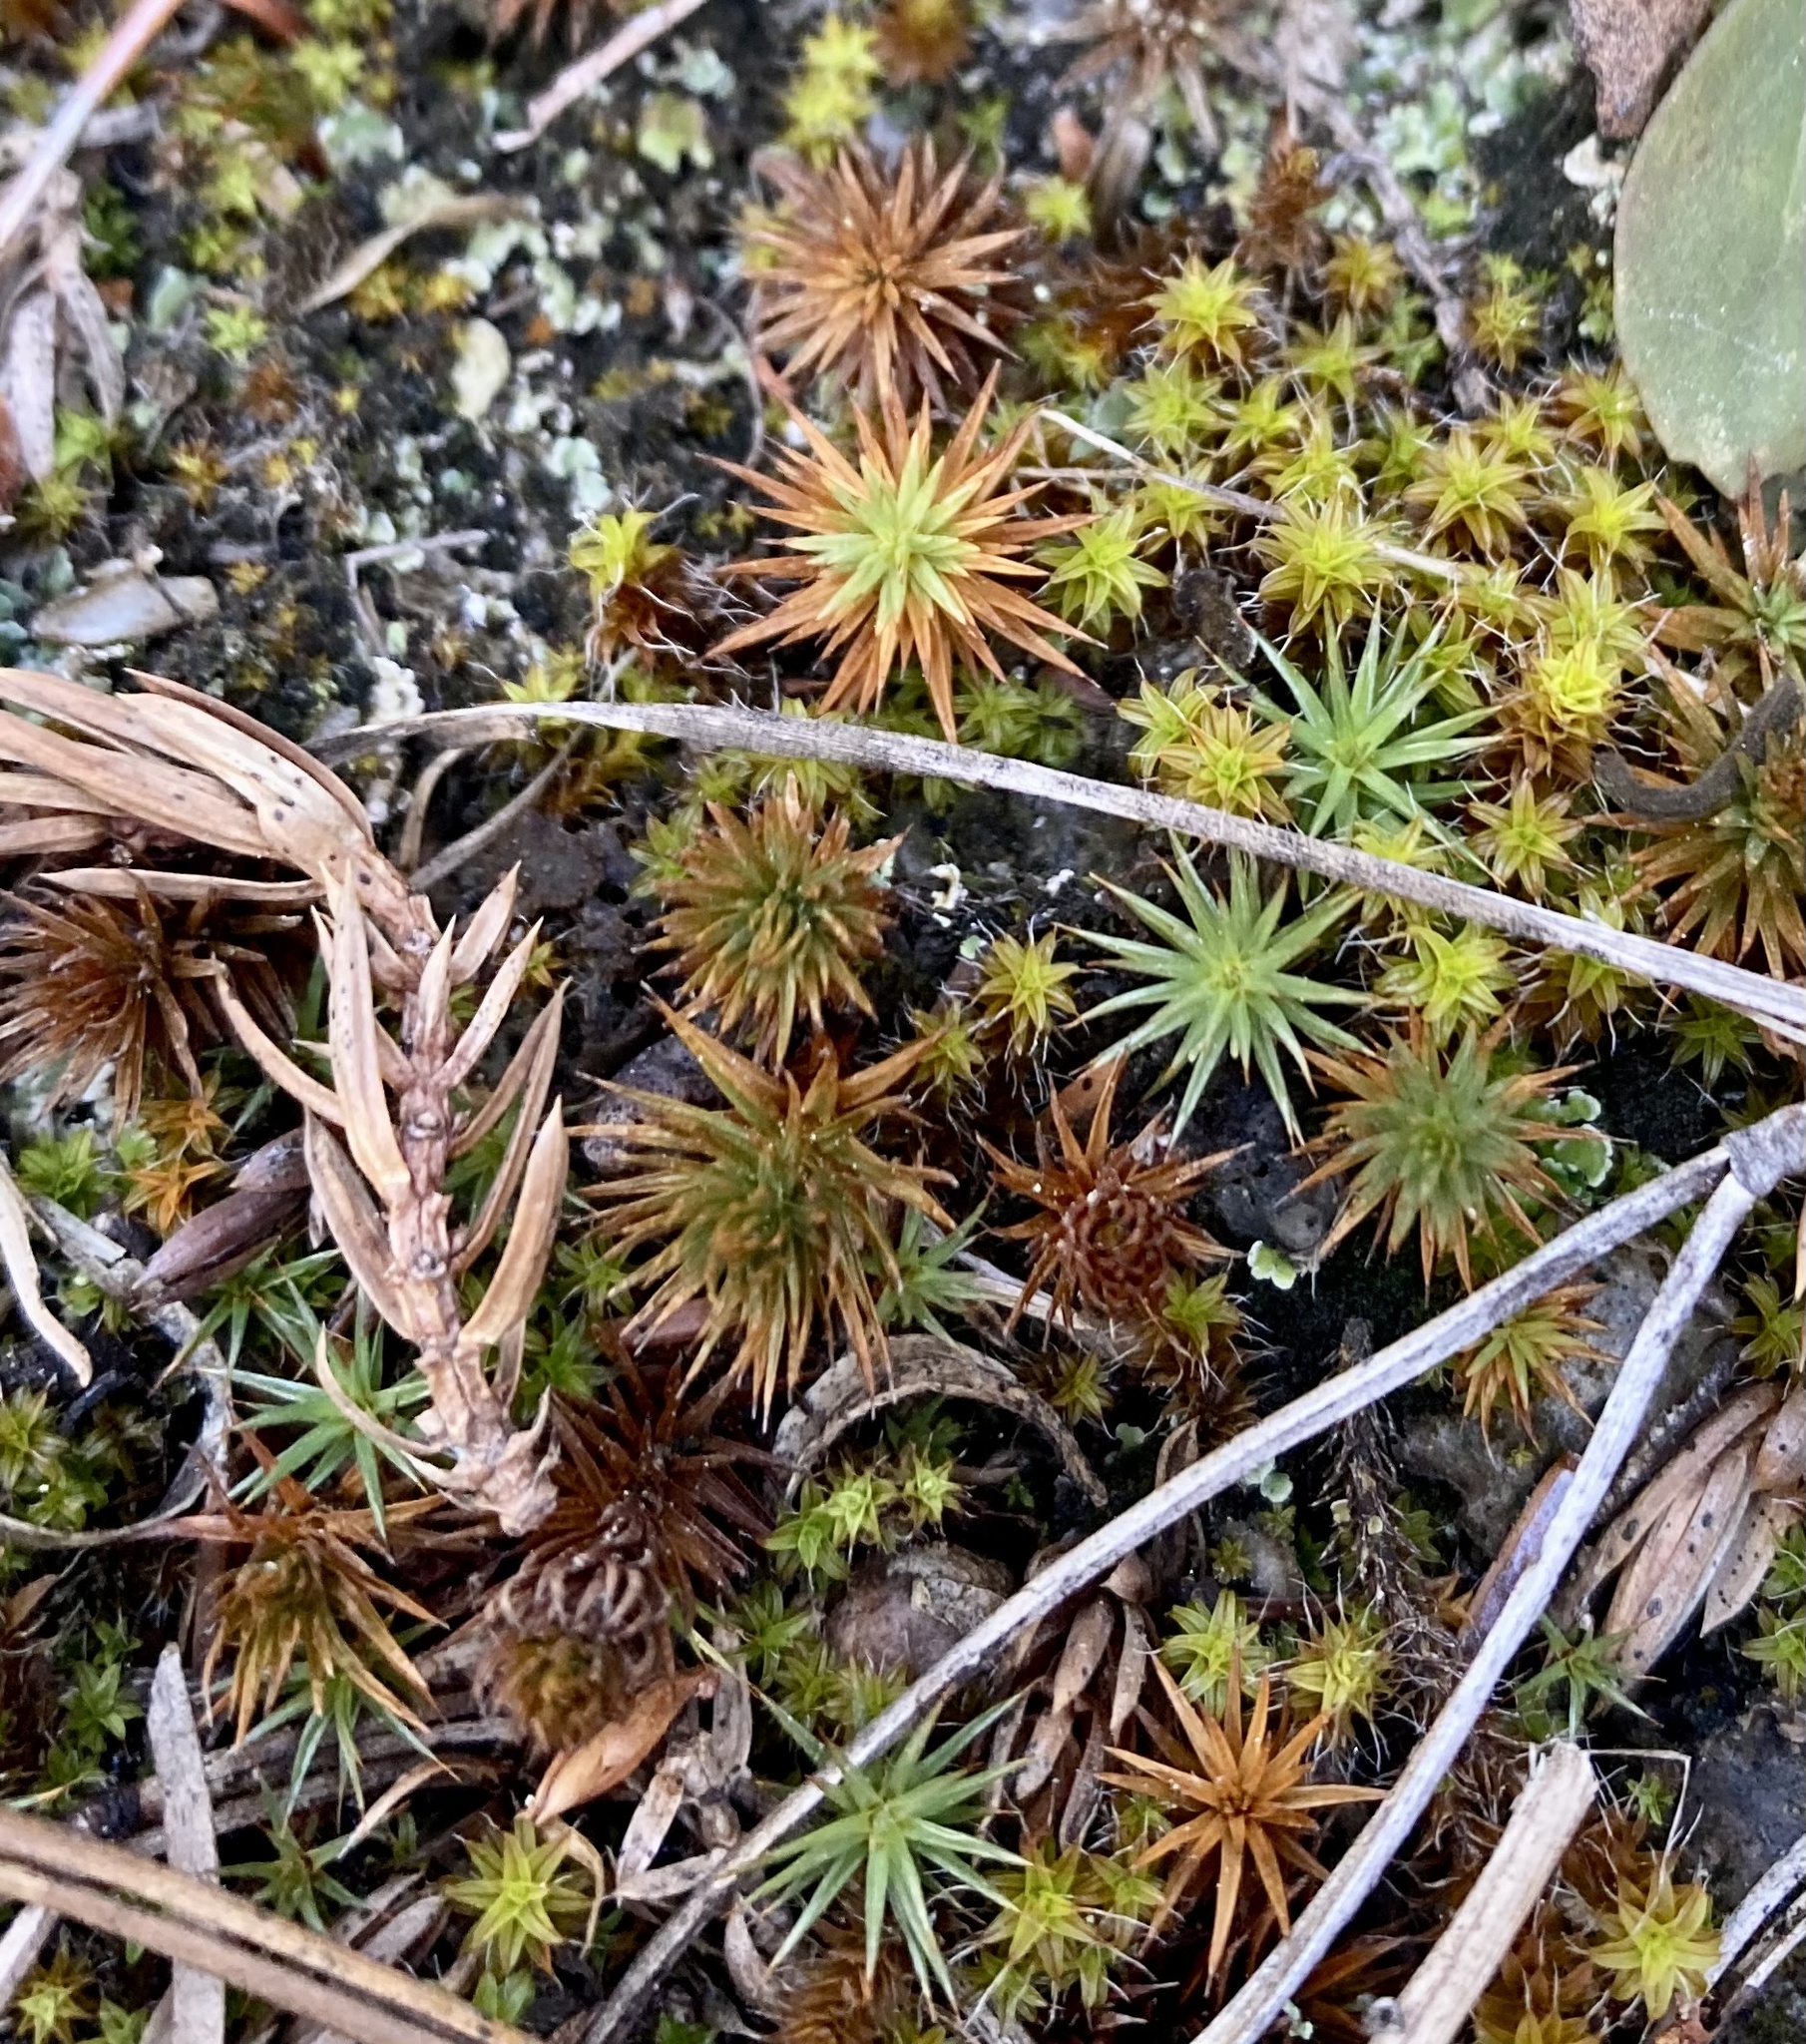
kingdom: Plantae
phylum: Bryophyta
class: Polytrichopsida
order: Polytrichales
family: Polytrichaceae
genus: Polytrichum
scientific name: Polytrichum juniperinum
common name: Juniper haircap moss
